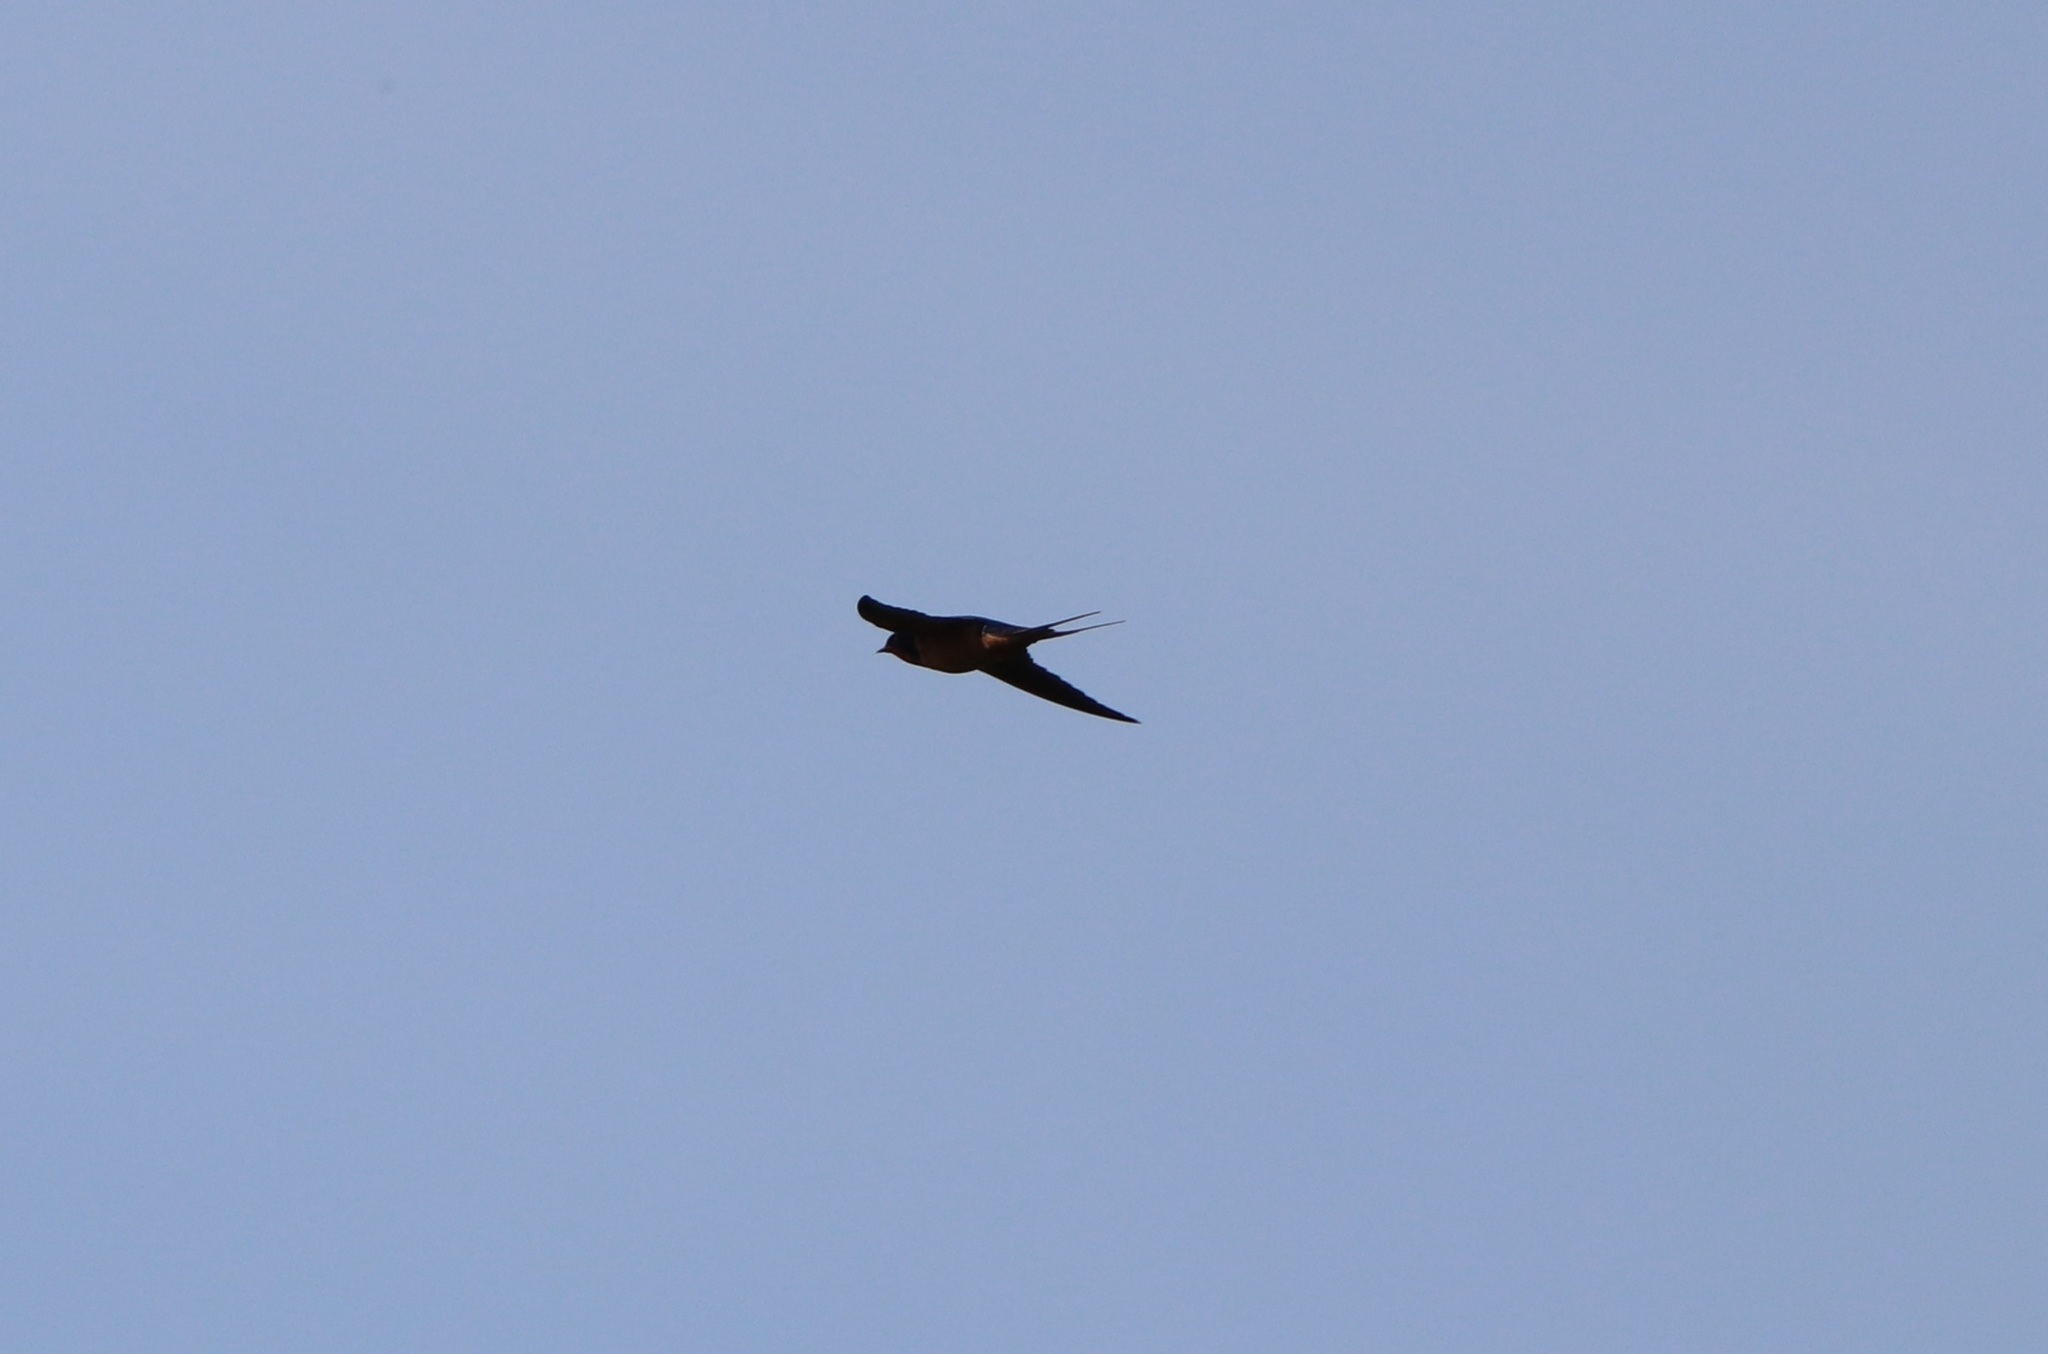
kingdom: Animalia
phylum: Chordata
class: Aves
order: Passeriformes
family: Hirundinidae
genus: Hirundo
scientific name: Hirundo rustica
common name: Barn swallow
